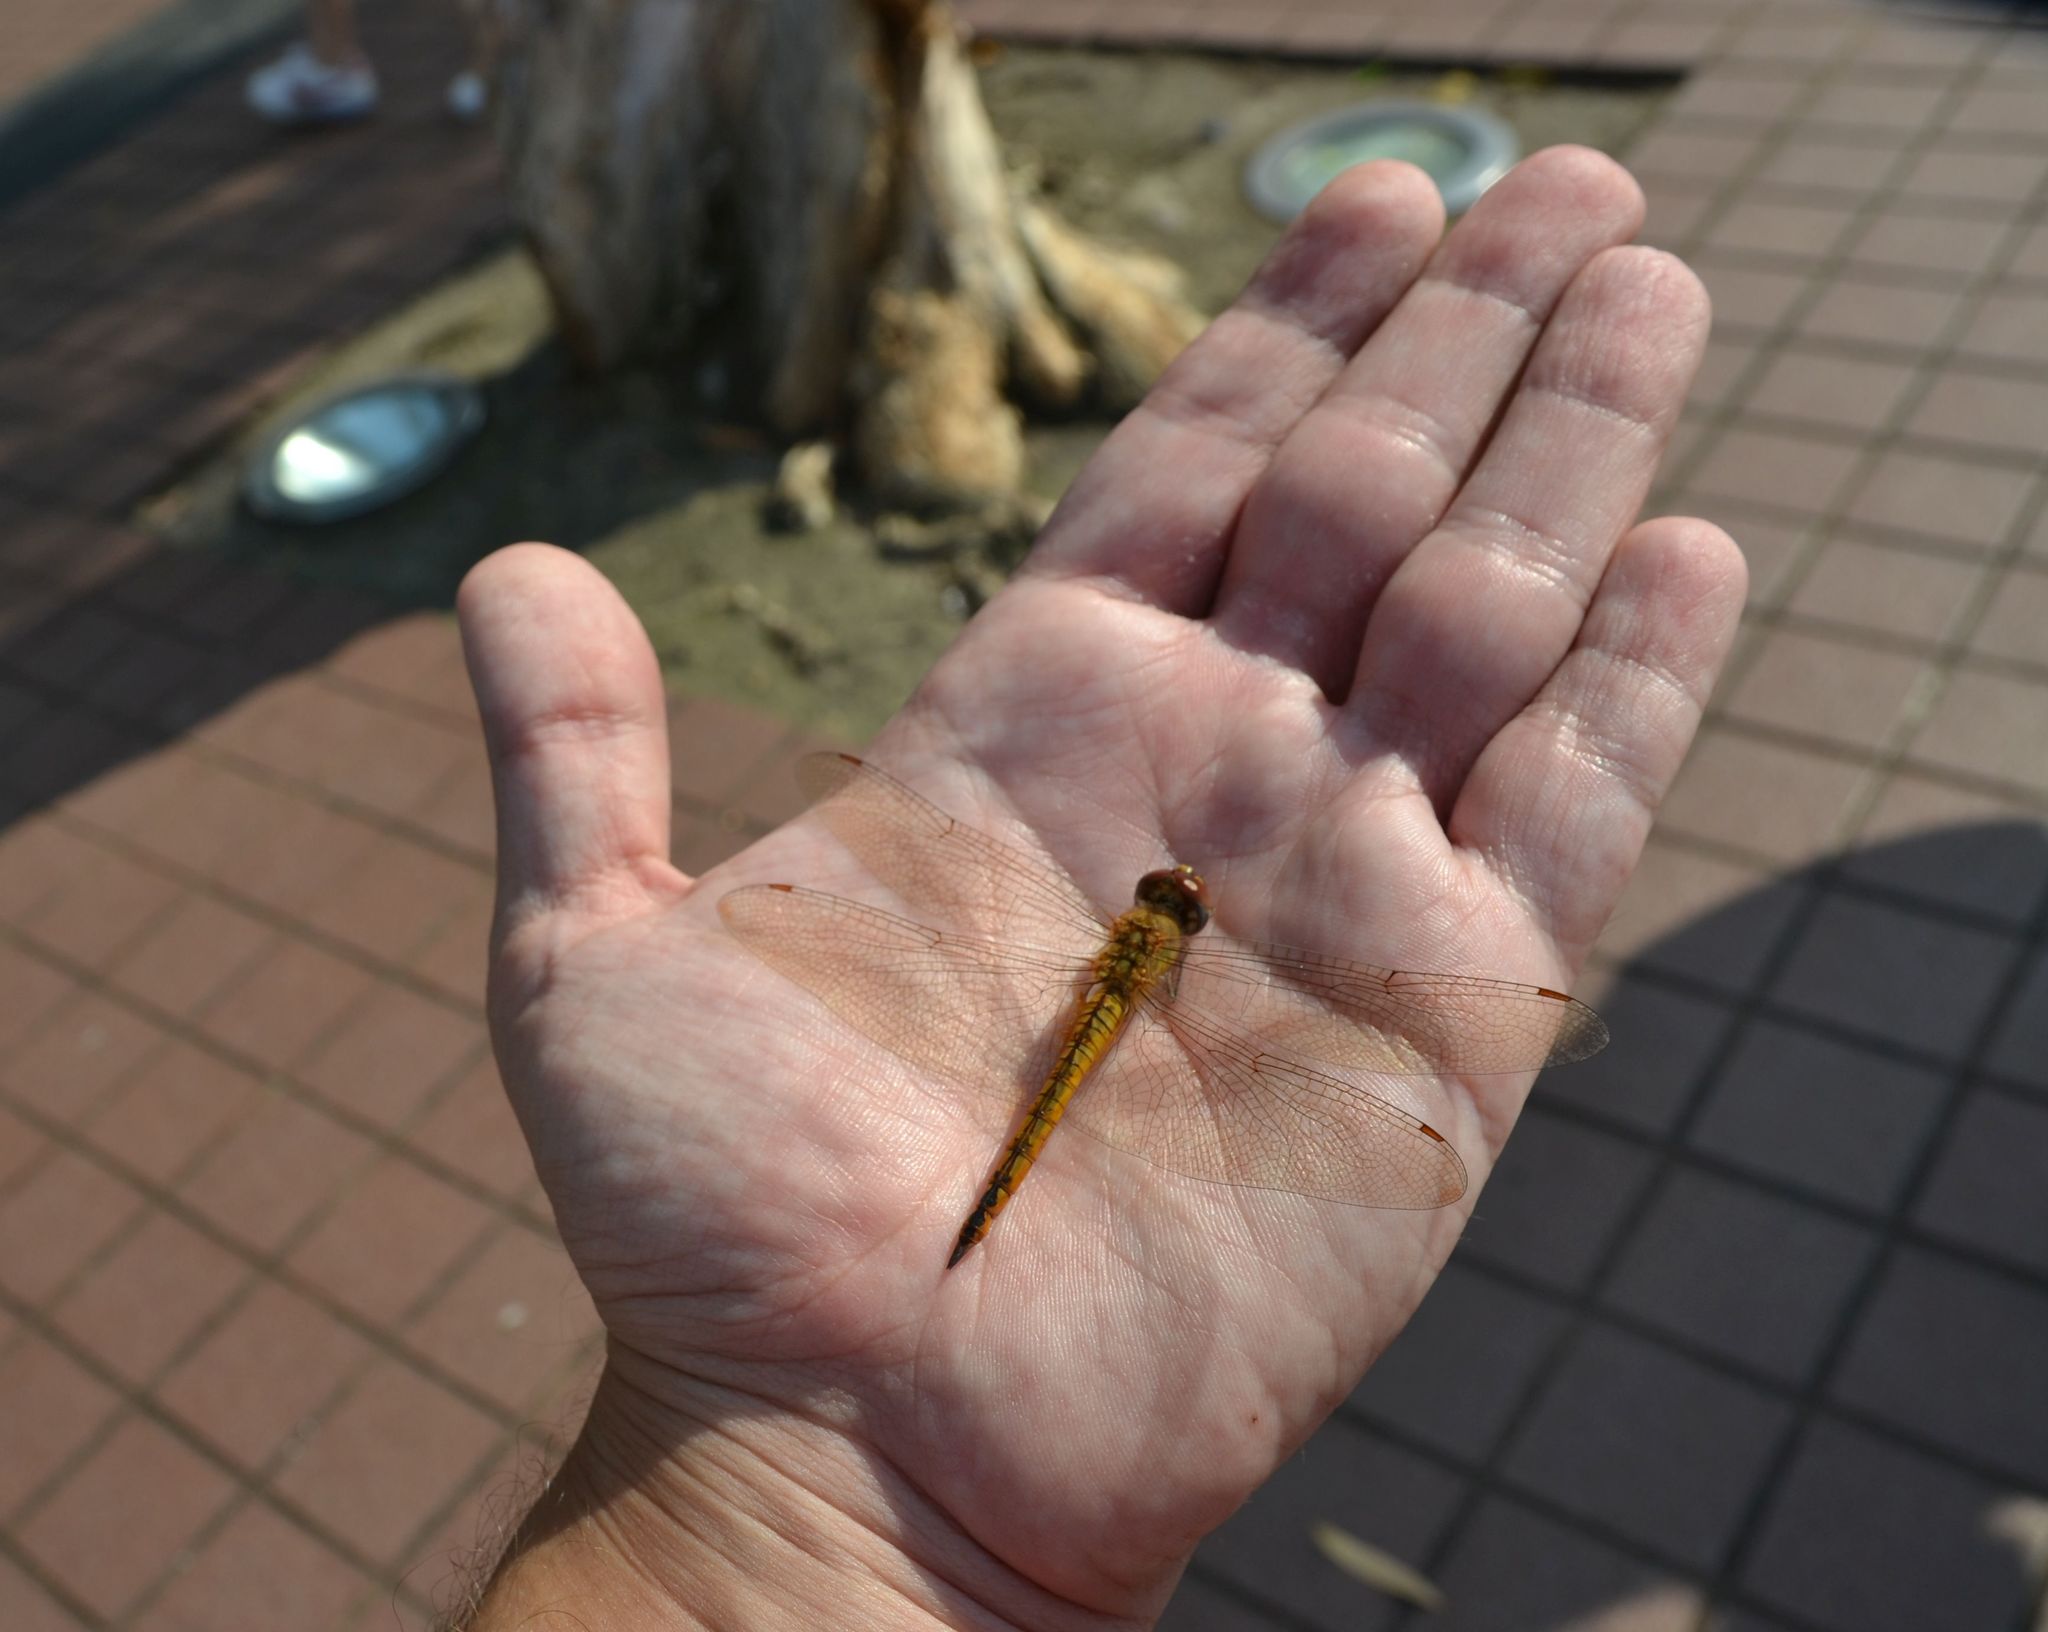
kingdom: Animalia
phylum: Arthropoda
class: Insecta
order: Odonata
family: Libellulidae
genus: Pantala
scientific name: Pantala flavescens
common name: Wandering glider
